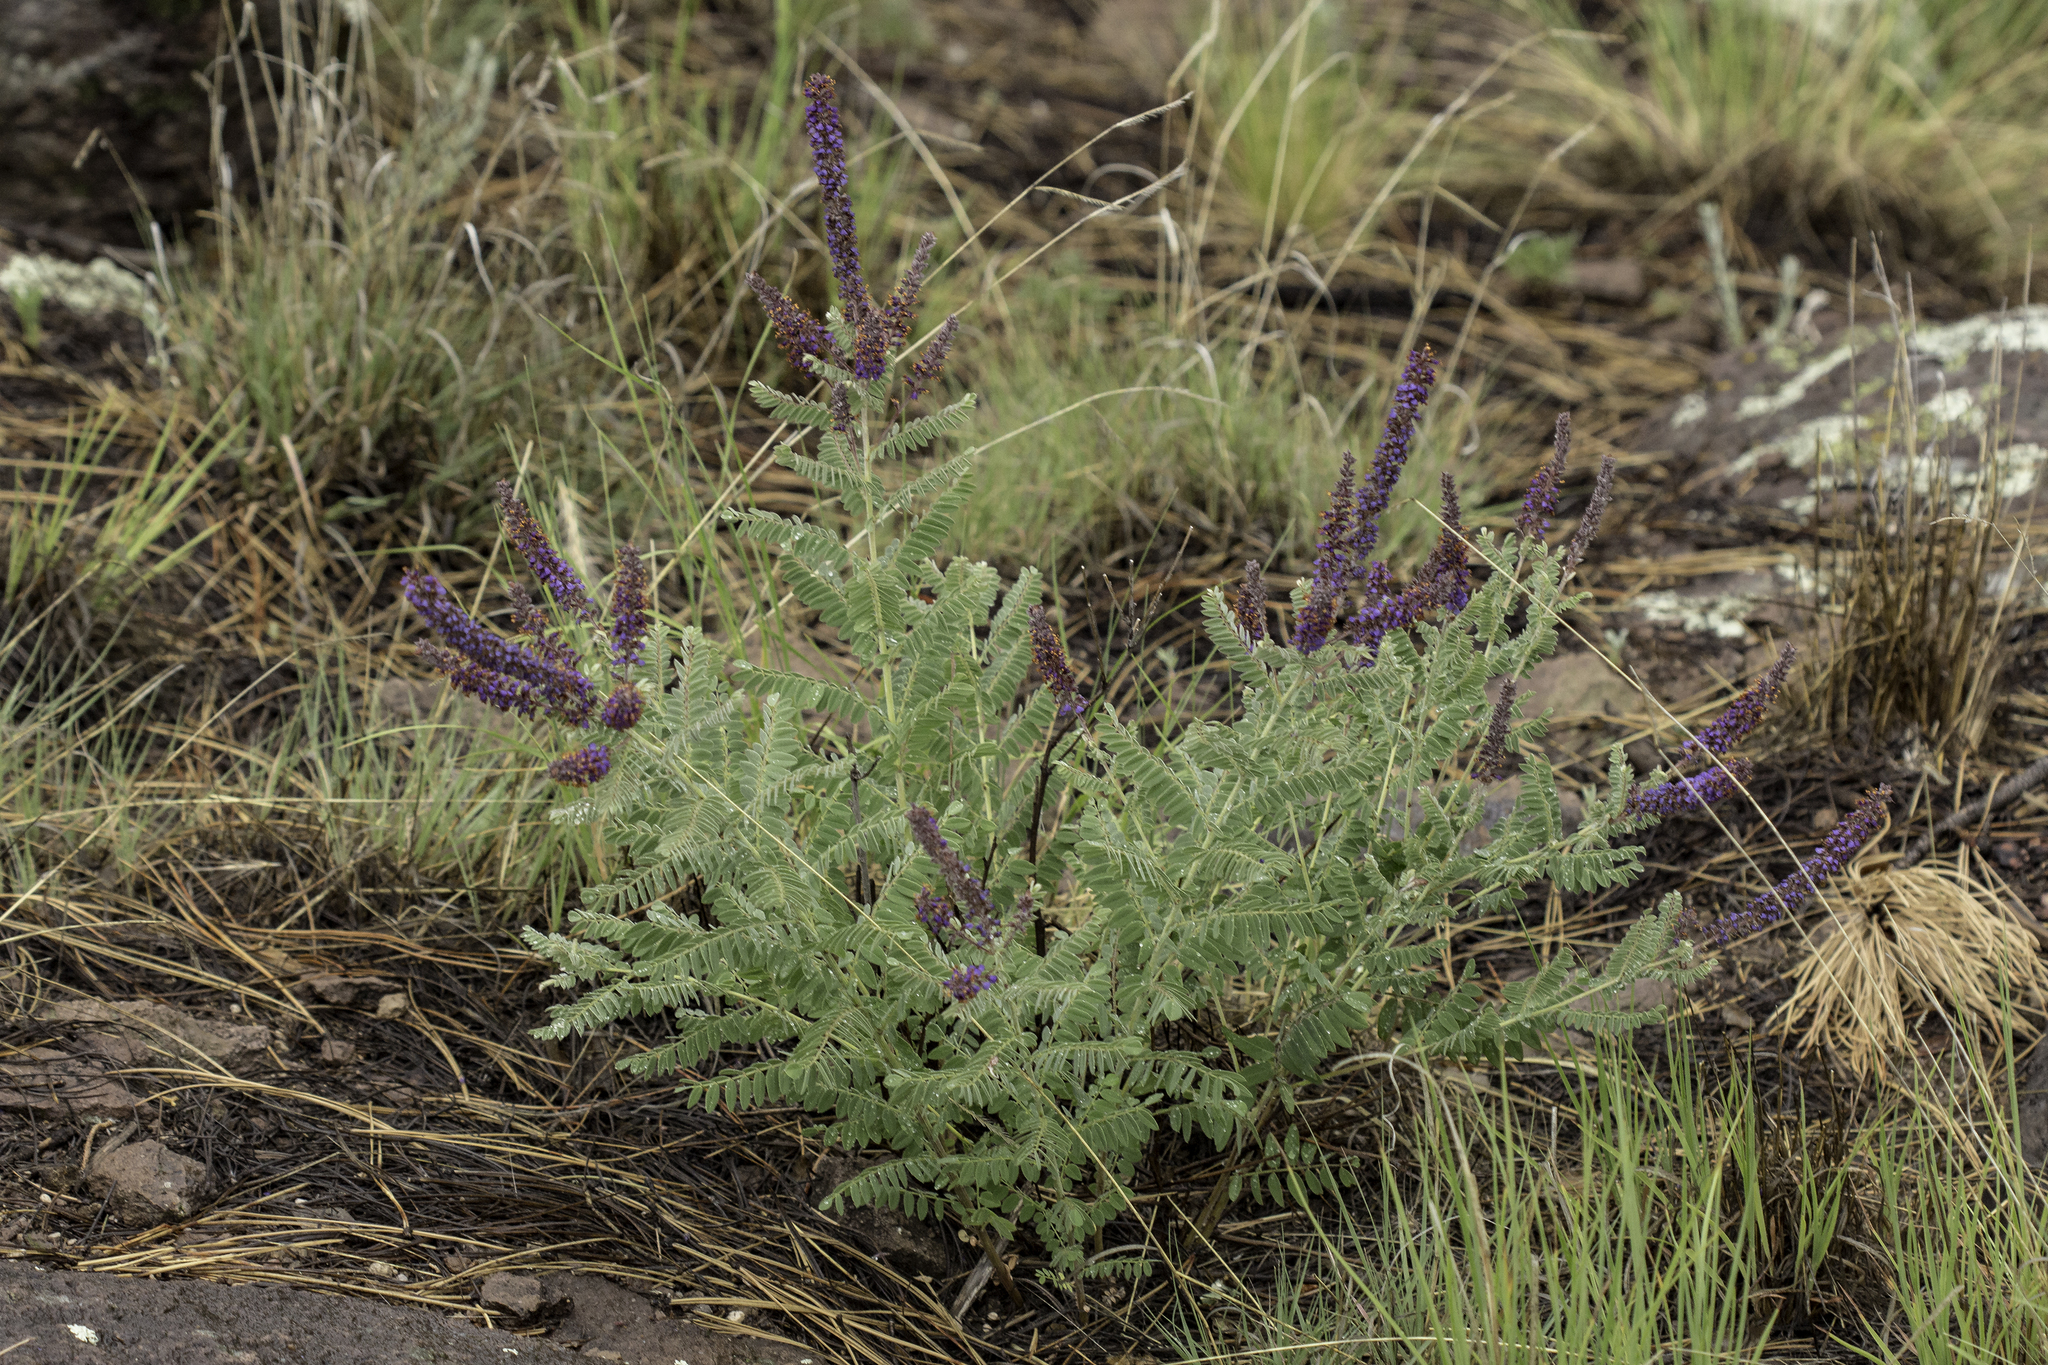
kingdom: Plantae
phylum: Tracheophyta
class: Magnoliopsida
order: Fabales
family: Fabaceae
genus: Amorpha
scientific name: Amorpha canescens
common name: Leadplant
